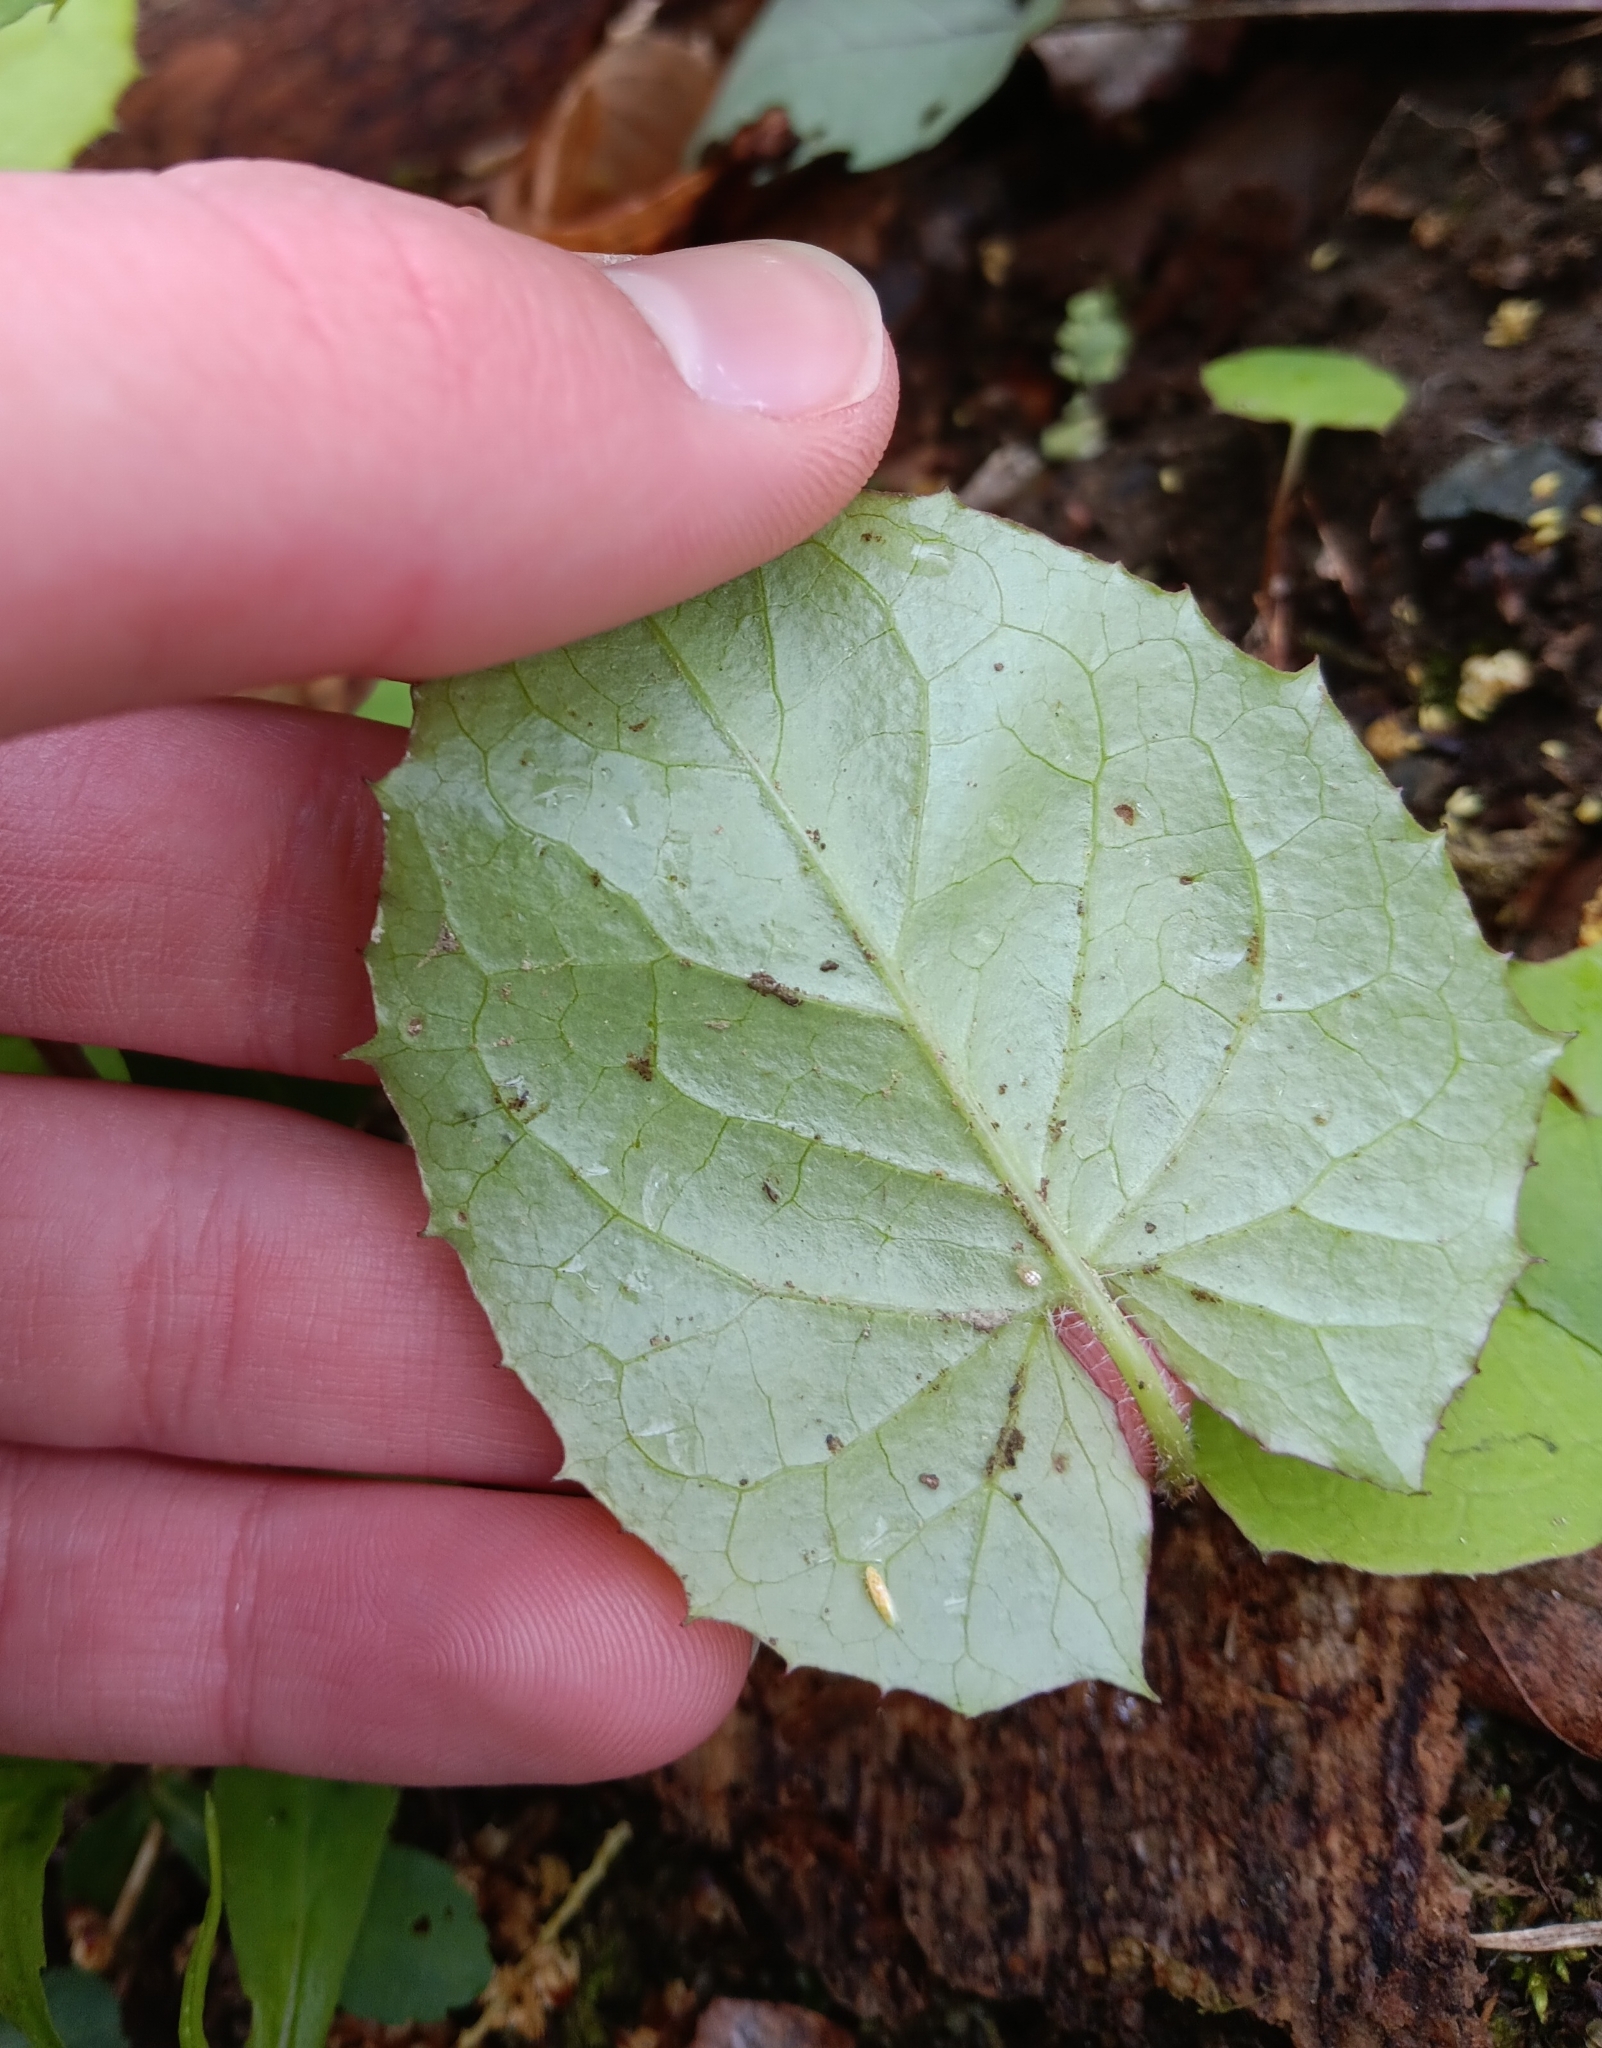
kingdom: Plantae
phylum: Tracheophyta
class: Magnoliopsida
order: Asterales
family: Asteraceae
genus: Tussilago
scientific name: Tussilago farfara
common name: Coltsfoot
